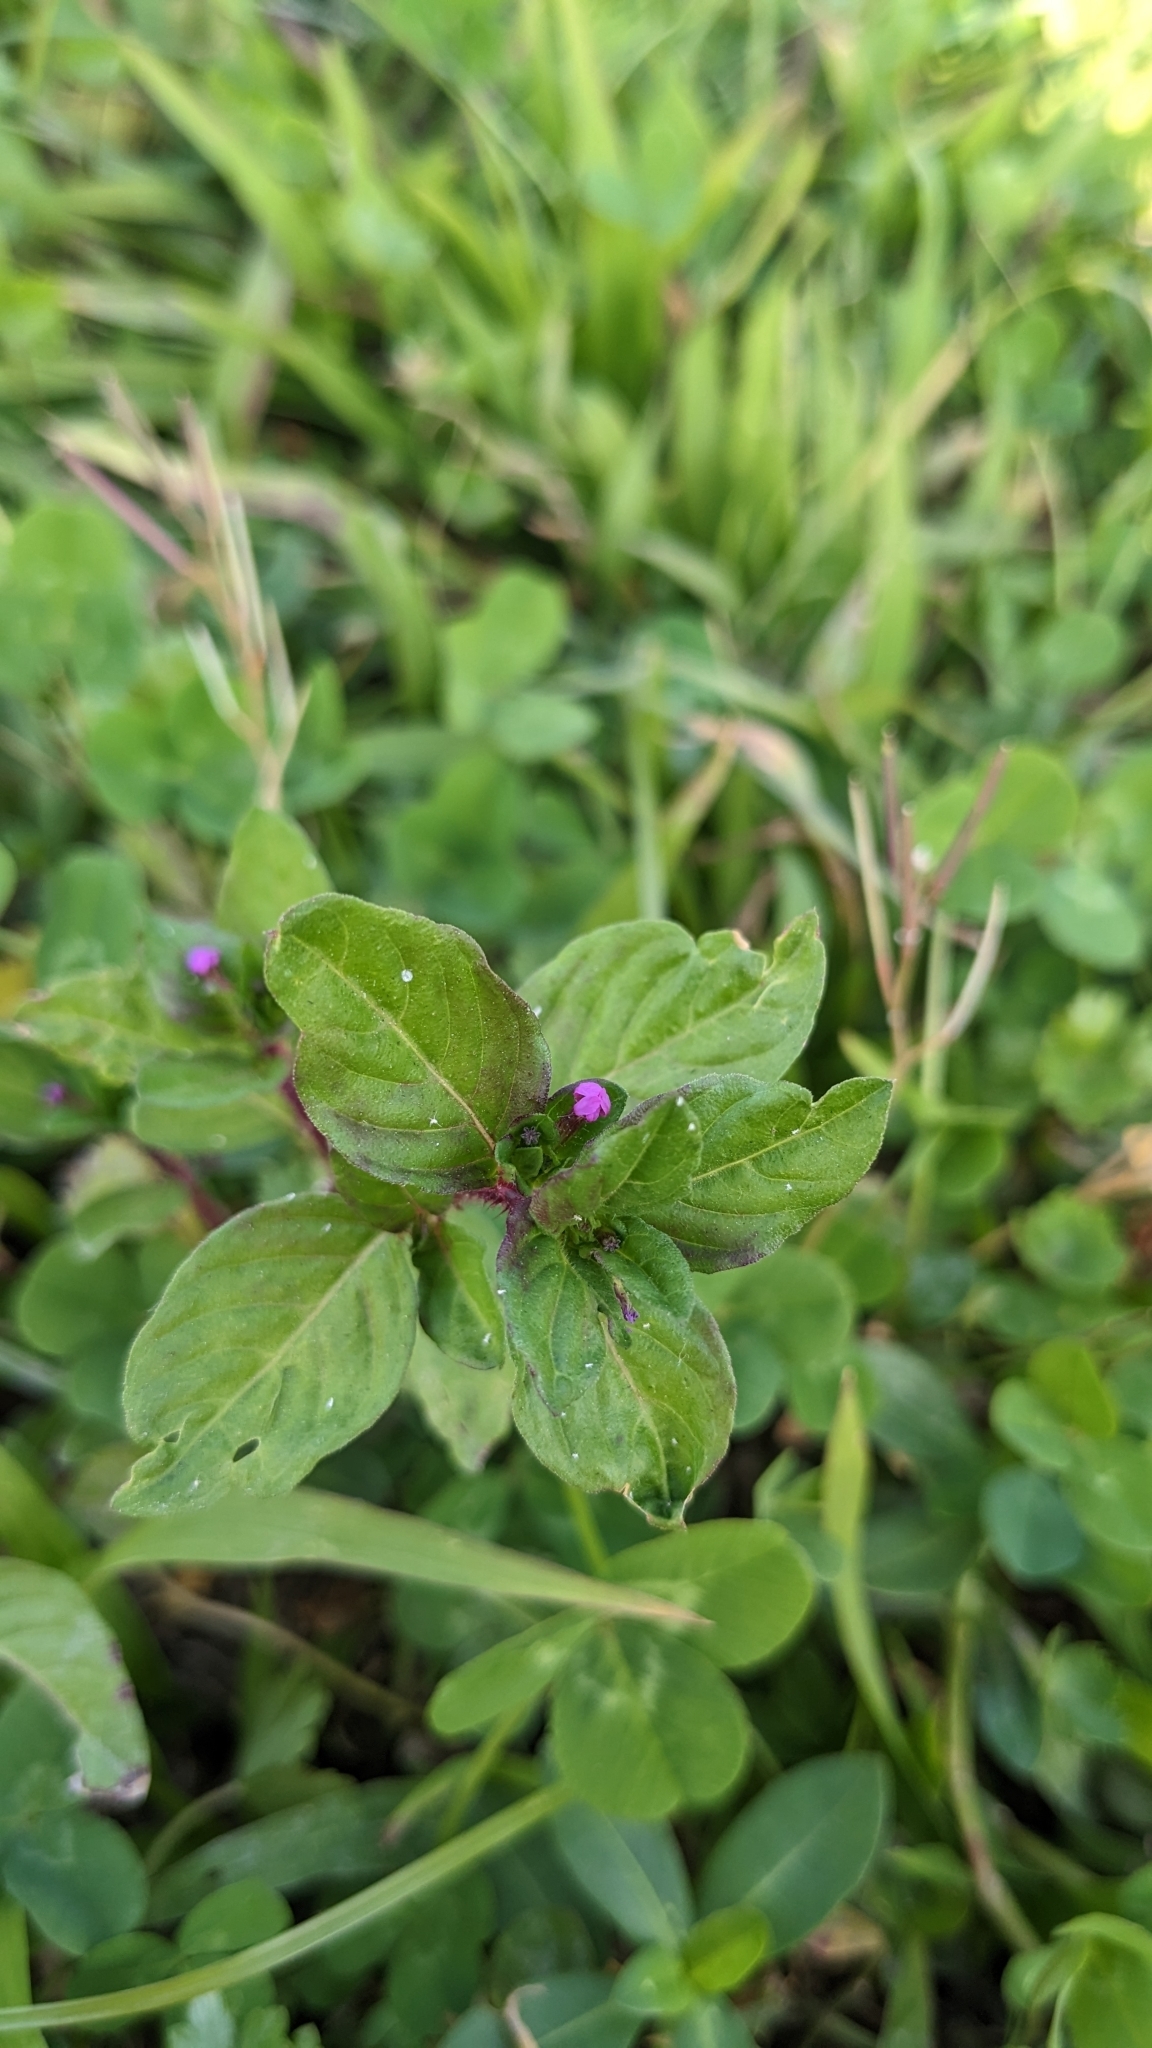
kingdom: Plantae
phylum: Tracheophyta
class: Magnoliopsida
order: Myrtales
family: Lythraceae
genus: Cuphea
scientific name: Cuphea carthagenensis
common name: Colombian waxweed
